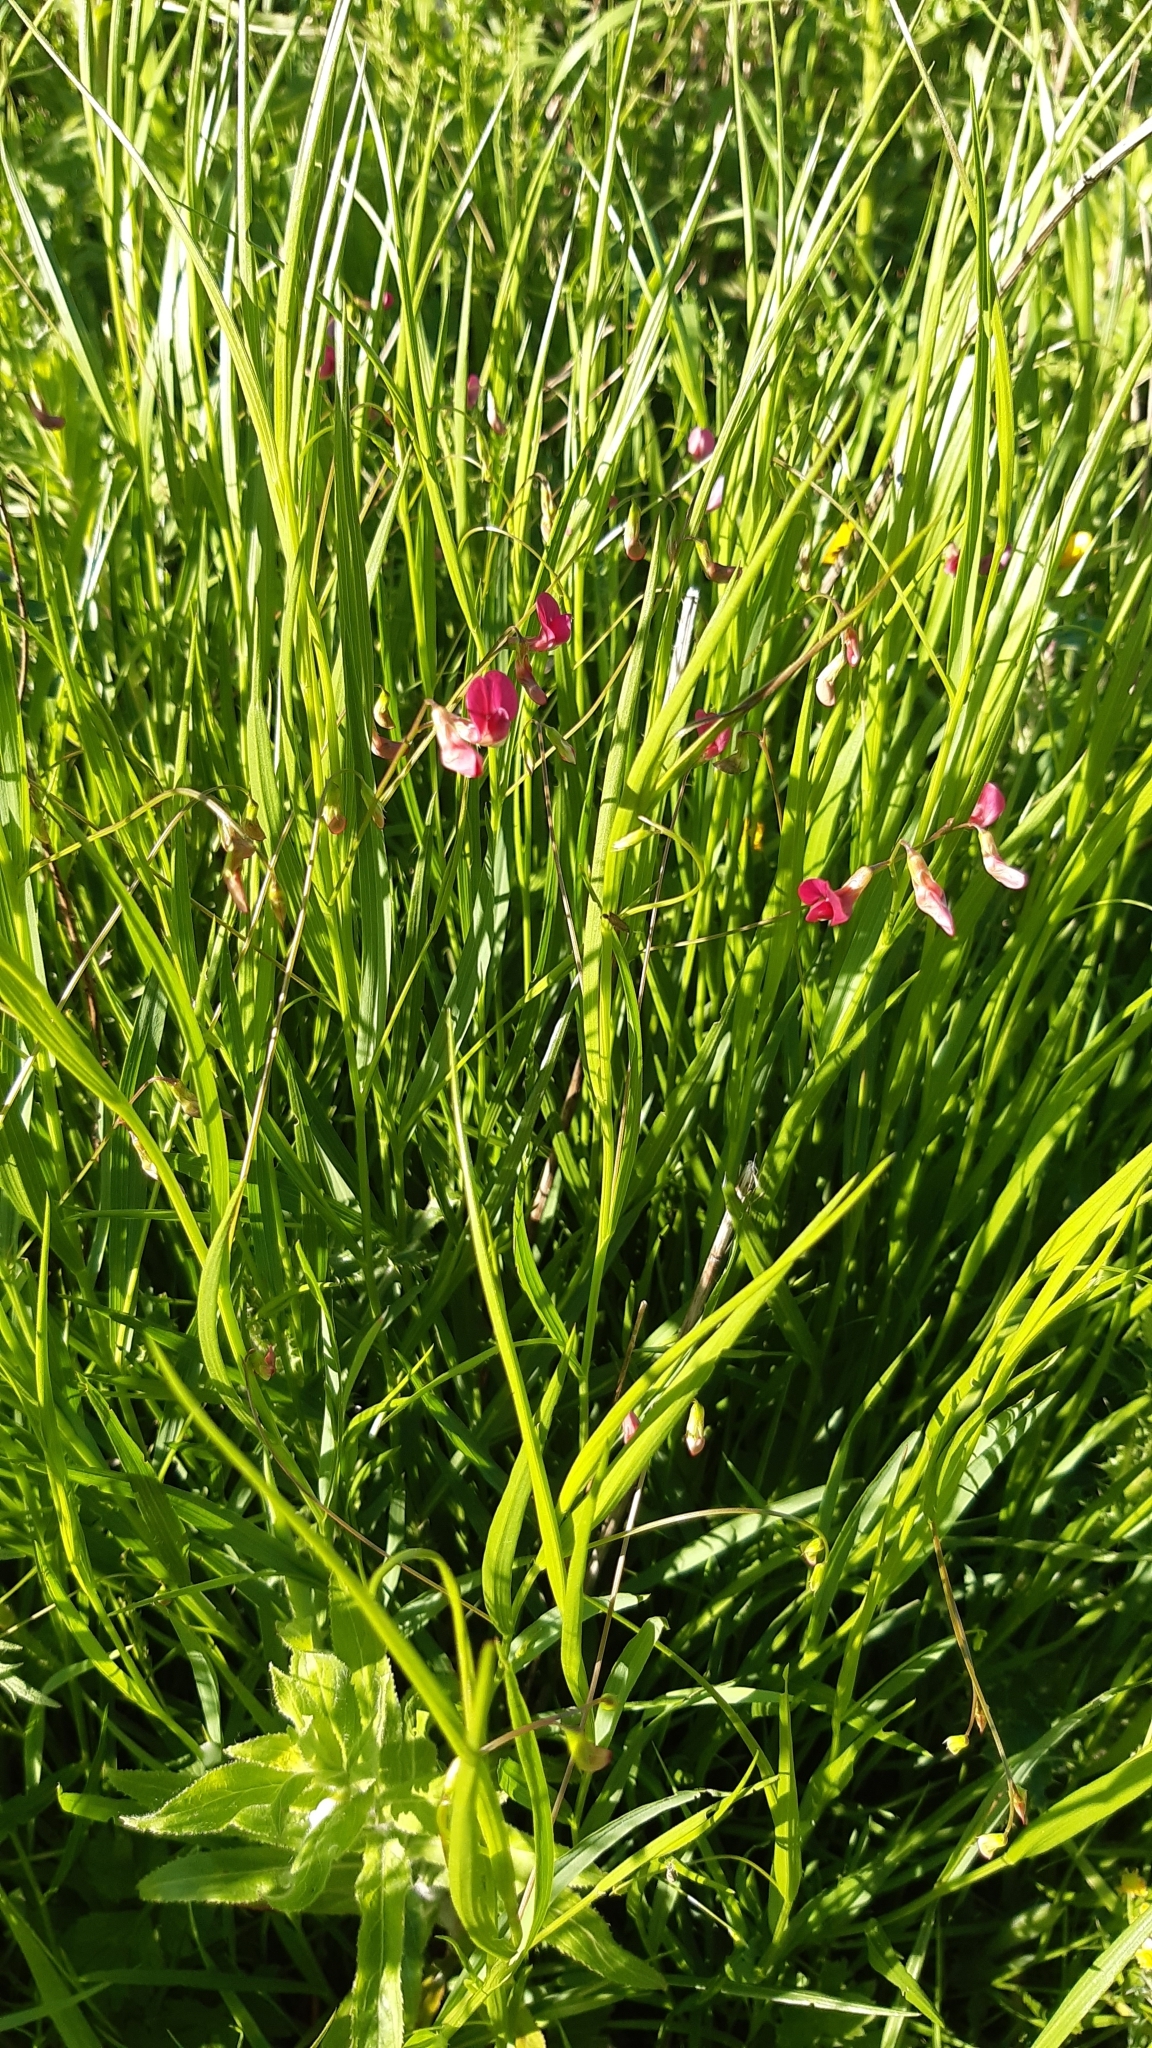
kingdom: Plantae
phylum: Tracheophyta
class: Magnoliopsida
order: Fabales
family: Fabaceae
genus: Lathyrus
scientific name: Lathyrus nissolia
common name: Grass vetchling
